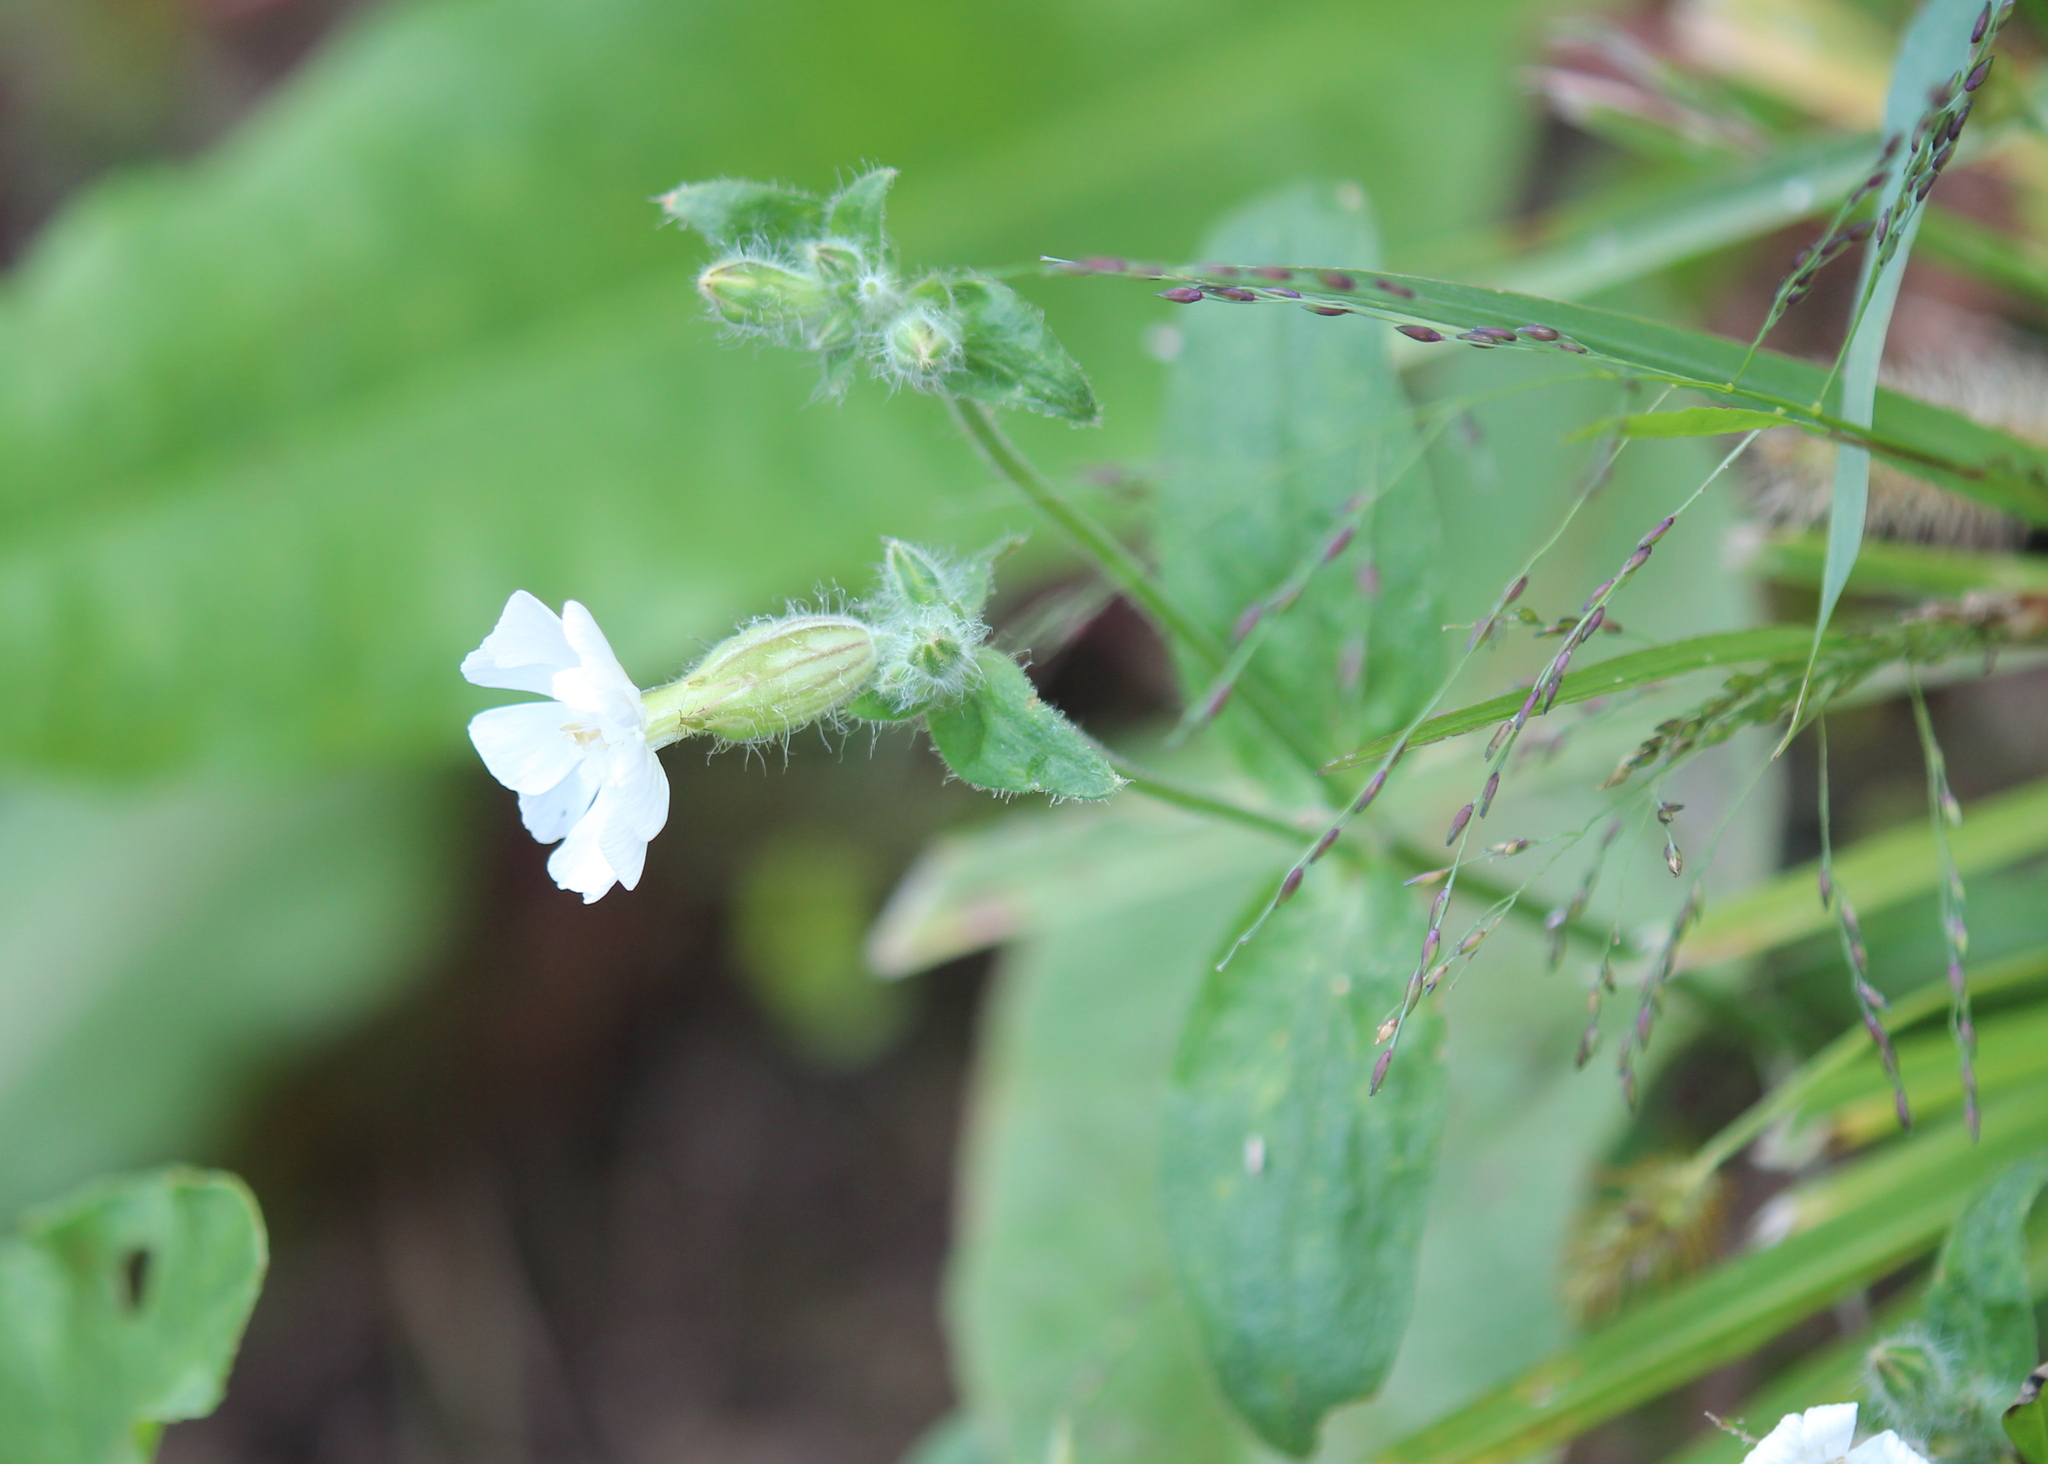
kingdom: Plantae
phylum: Tracheophyta
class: Magnoliopsida
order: Caryophyllales
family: Caryophyllaceae
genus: Silene
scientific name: Silene latifolia
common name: White campion
